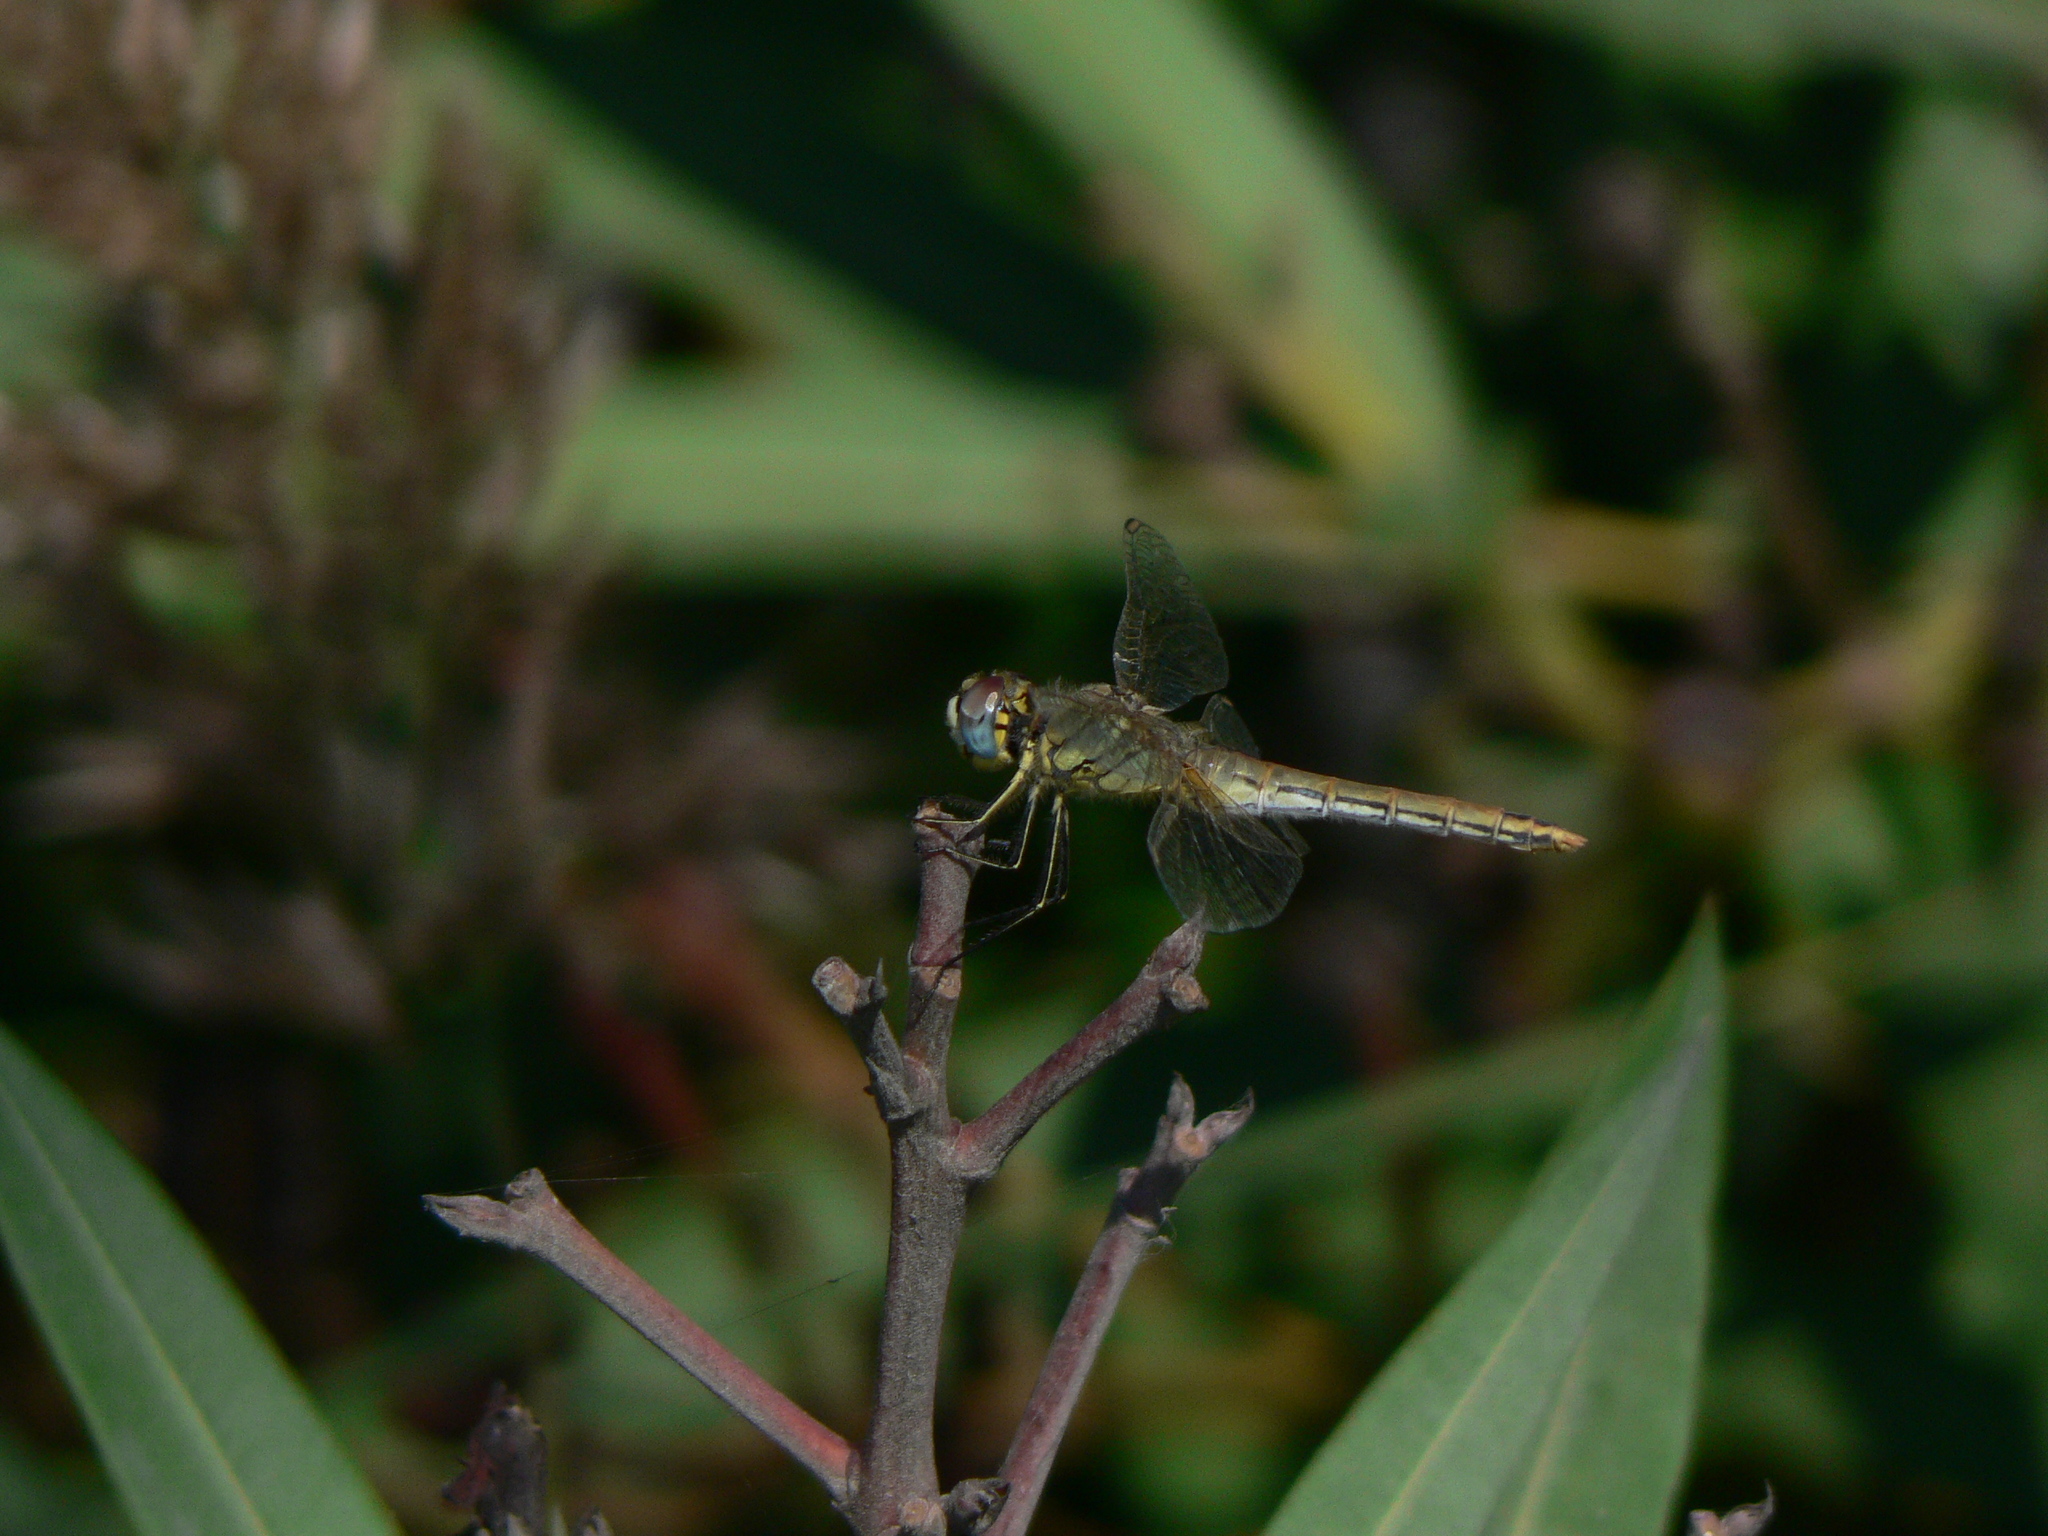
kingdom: Animalia
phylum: Arthropoda
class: Insecta
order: Odonata
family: Libellulidae
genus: Sympetrum
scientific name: Sympetrum fonscolombii
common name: Red-veined darter
